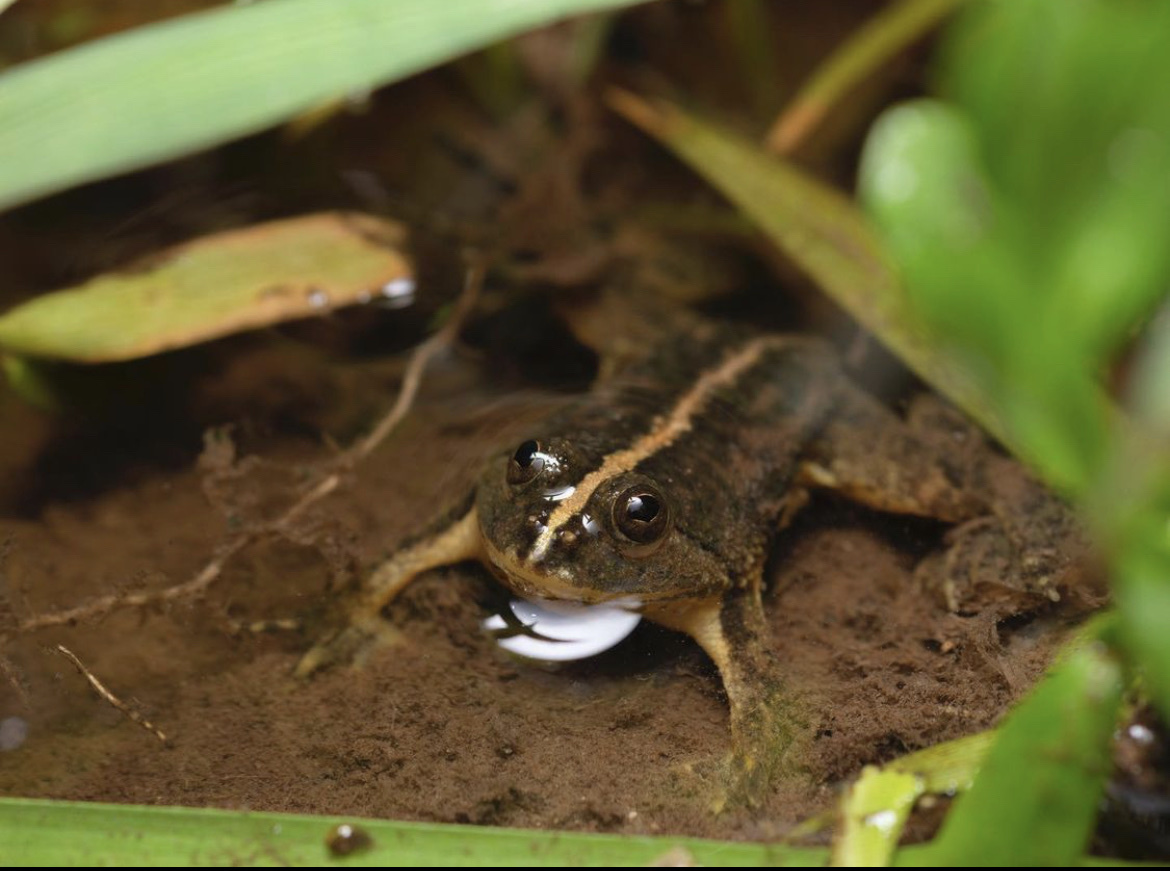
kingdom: Animalia
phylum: Chordata
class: Amphibia
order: Anura
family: Dicroglossidae
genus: Occidozyga
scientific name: Occidozyga lima
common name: Rough-skinned puddle frog/yellow-bellied puddle frog/green puddle frog/pointed-tongued floating frog
